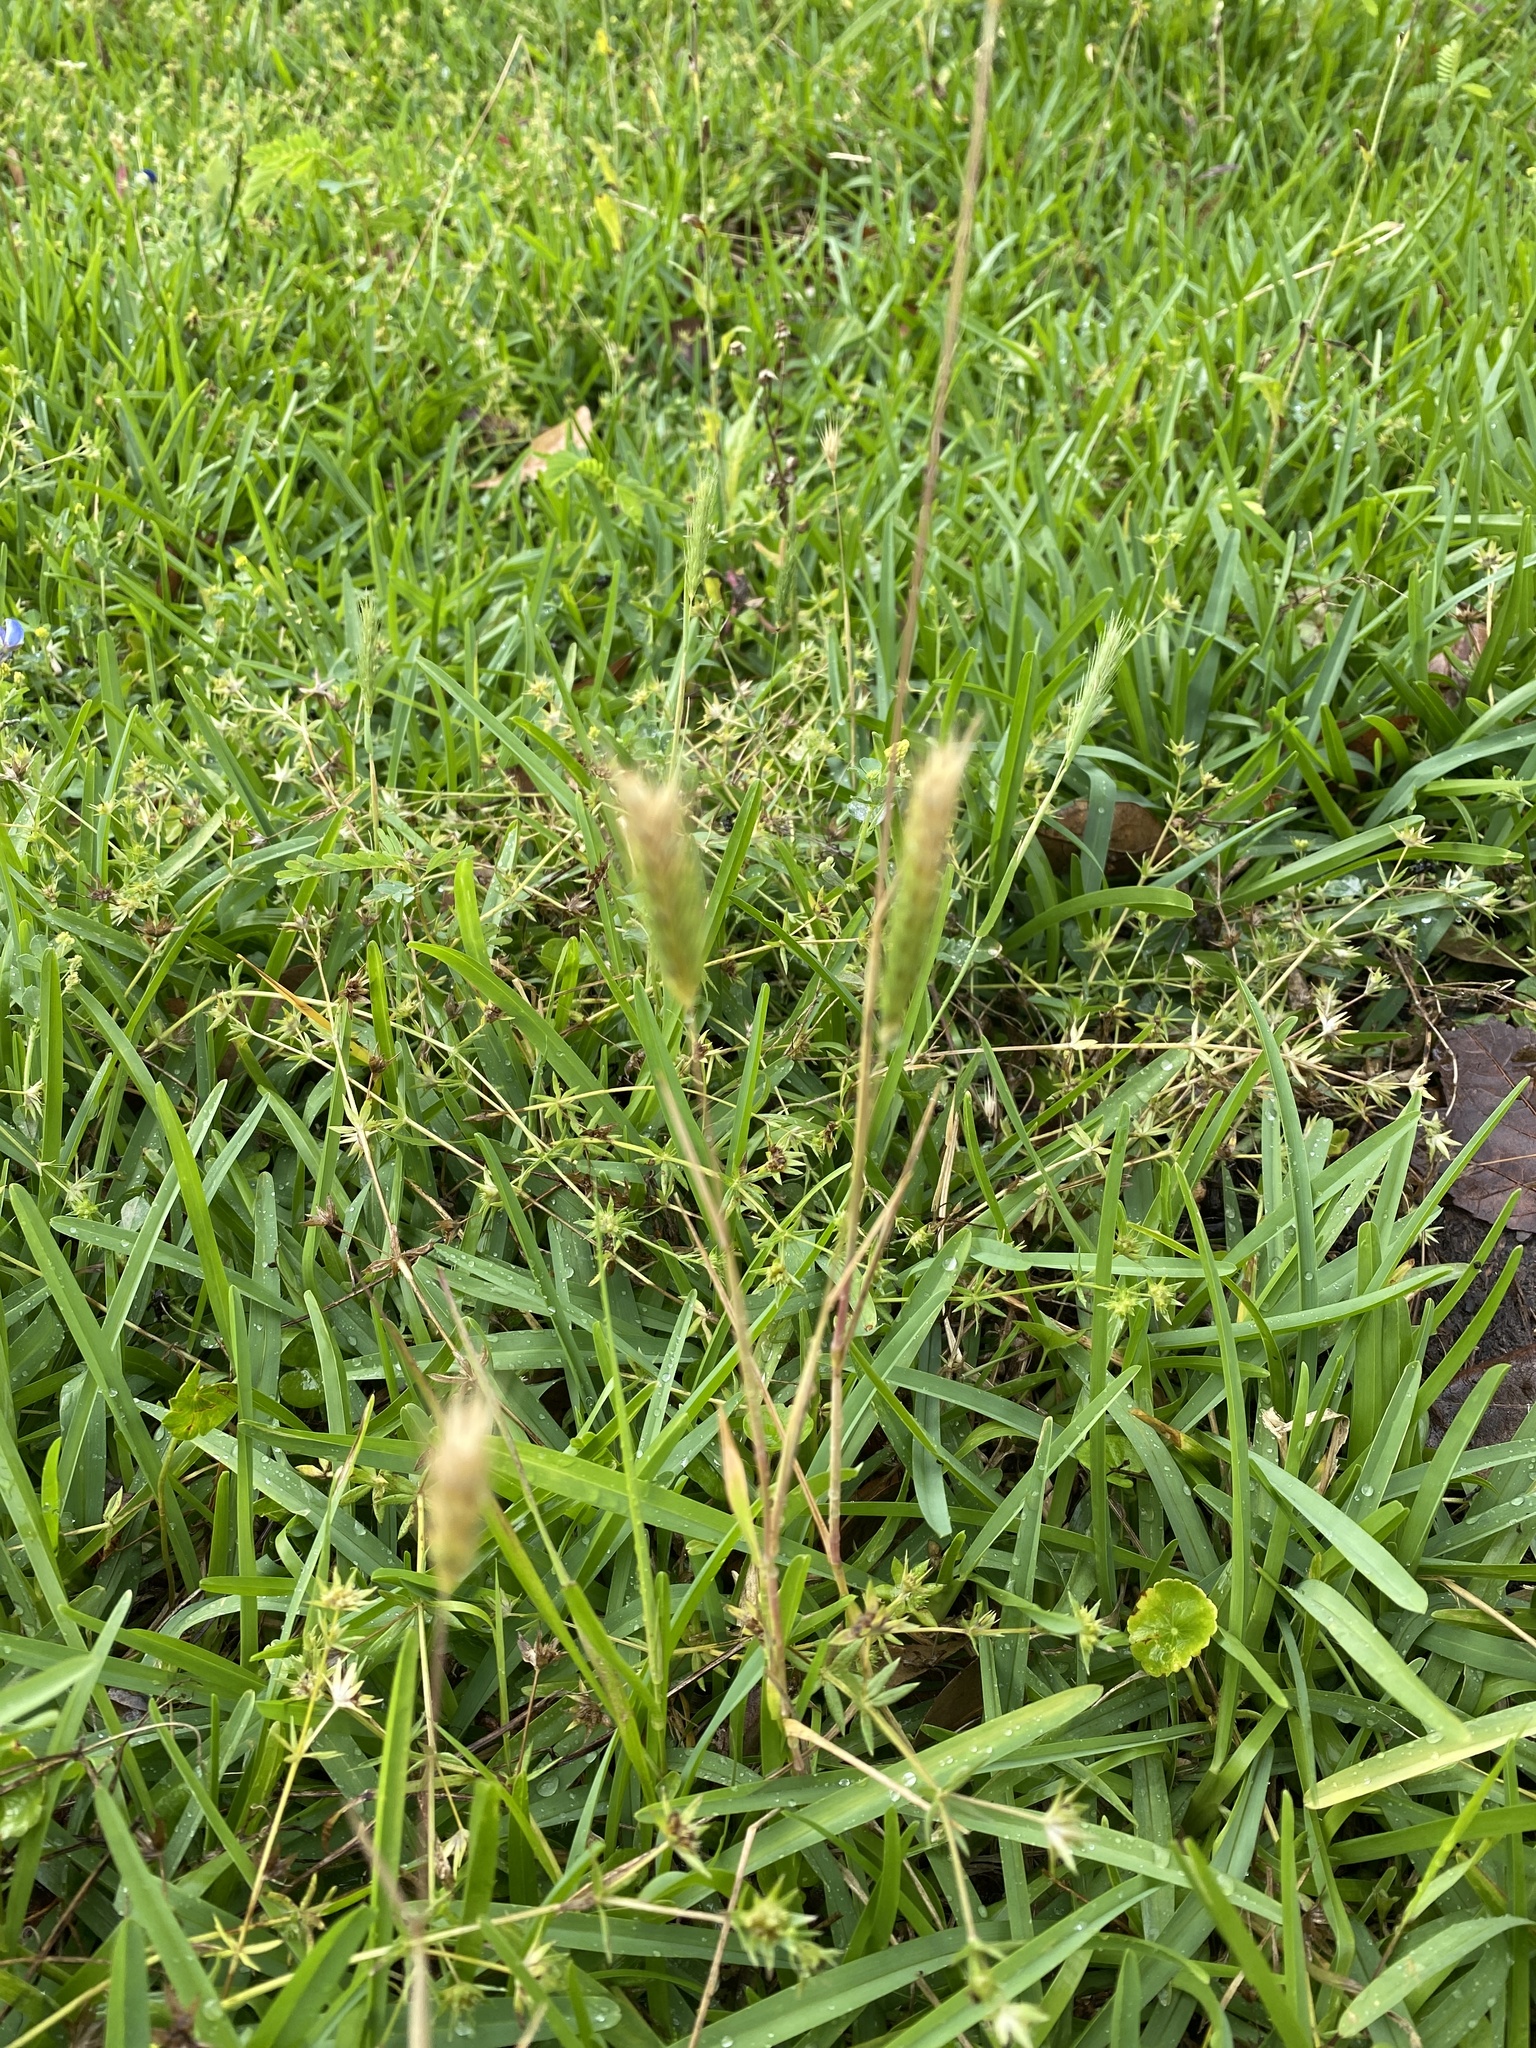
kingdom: Plantae
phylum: Tracheophyta
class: Liliopsida
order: Poales
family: Poaceae
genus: Hordeum
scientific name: Hordeum pusillum
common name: Little barley
